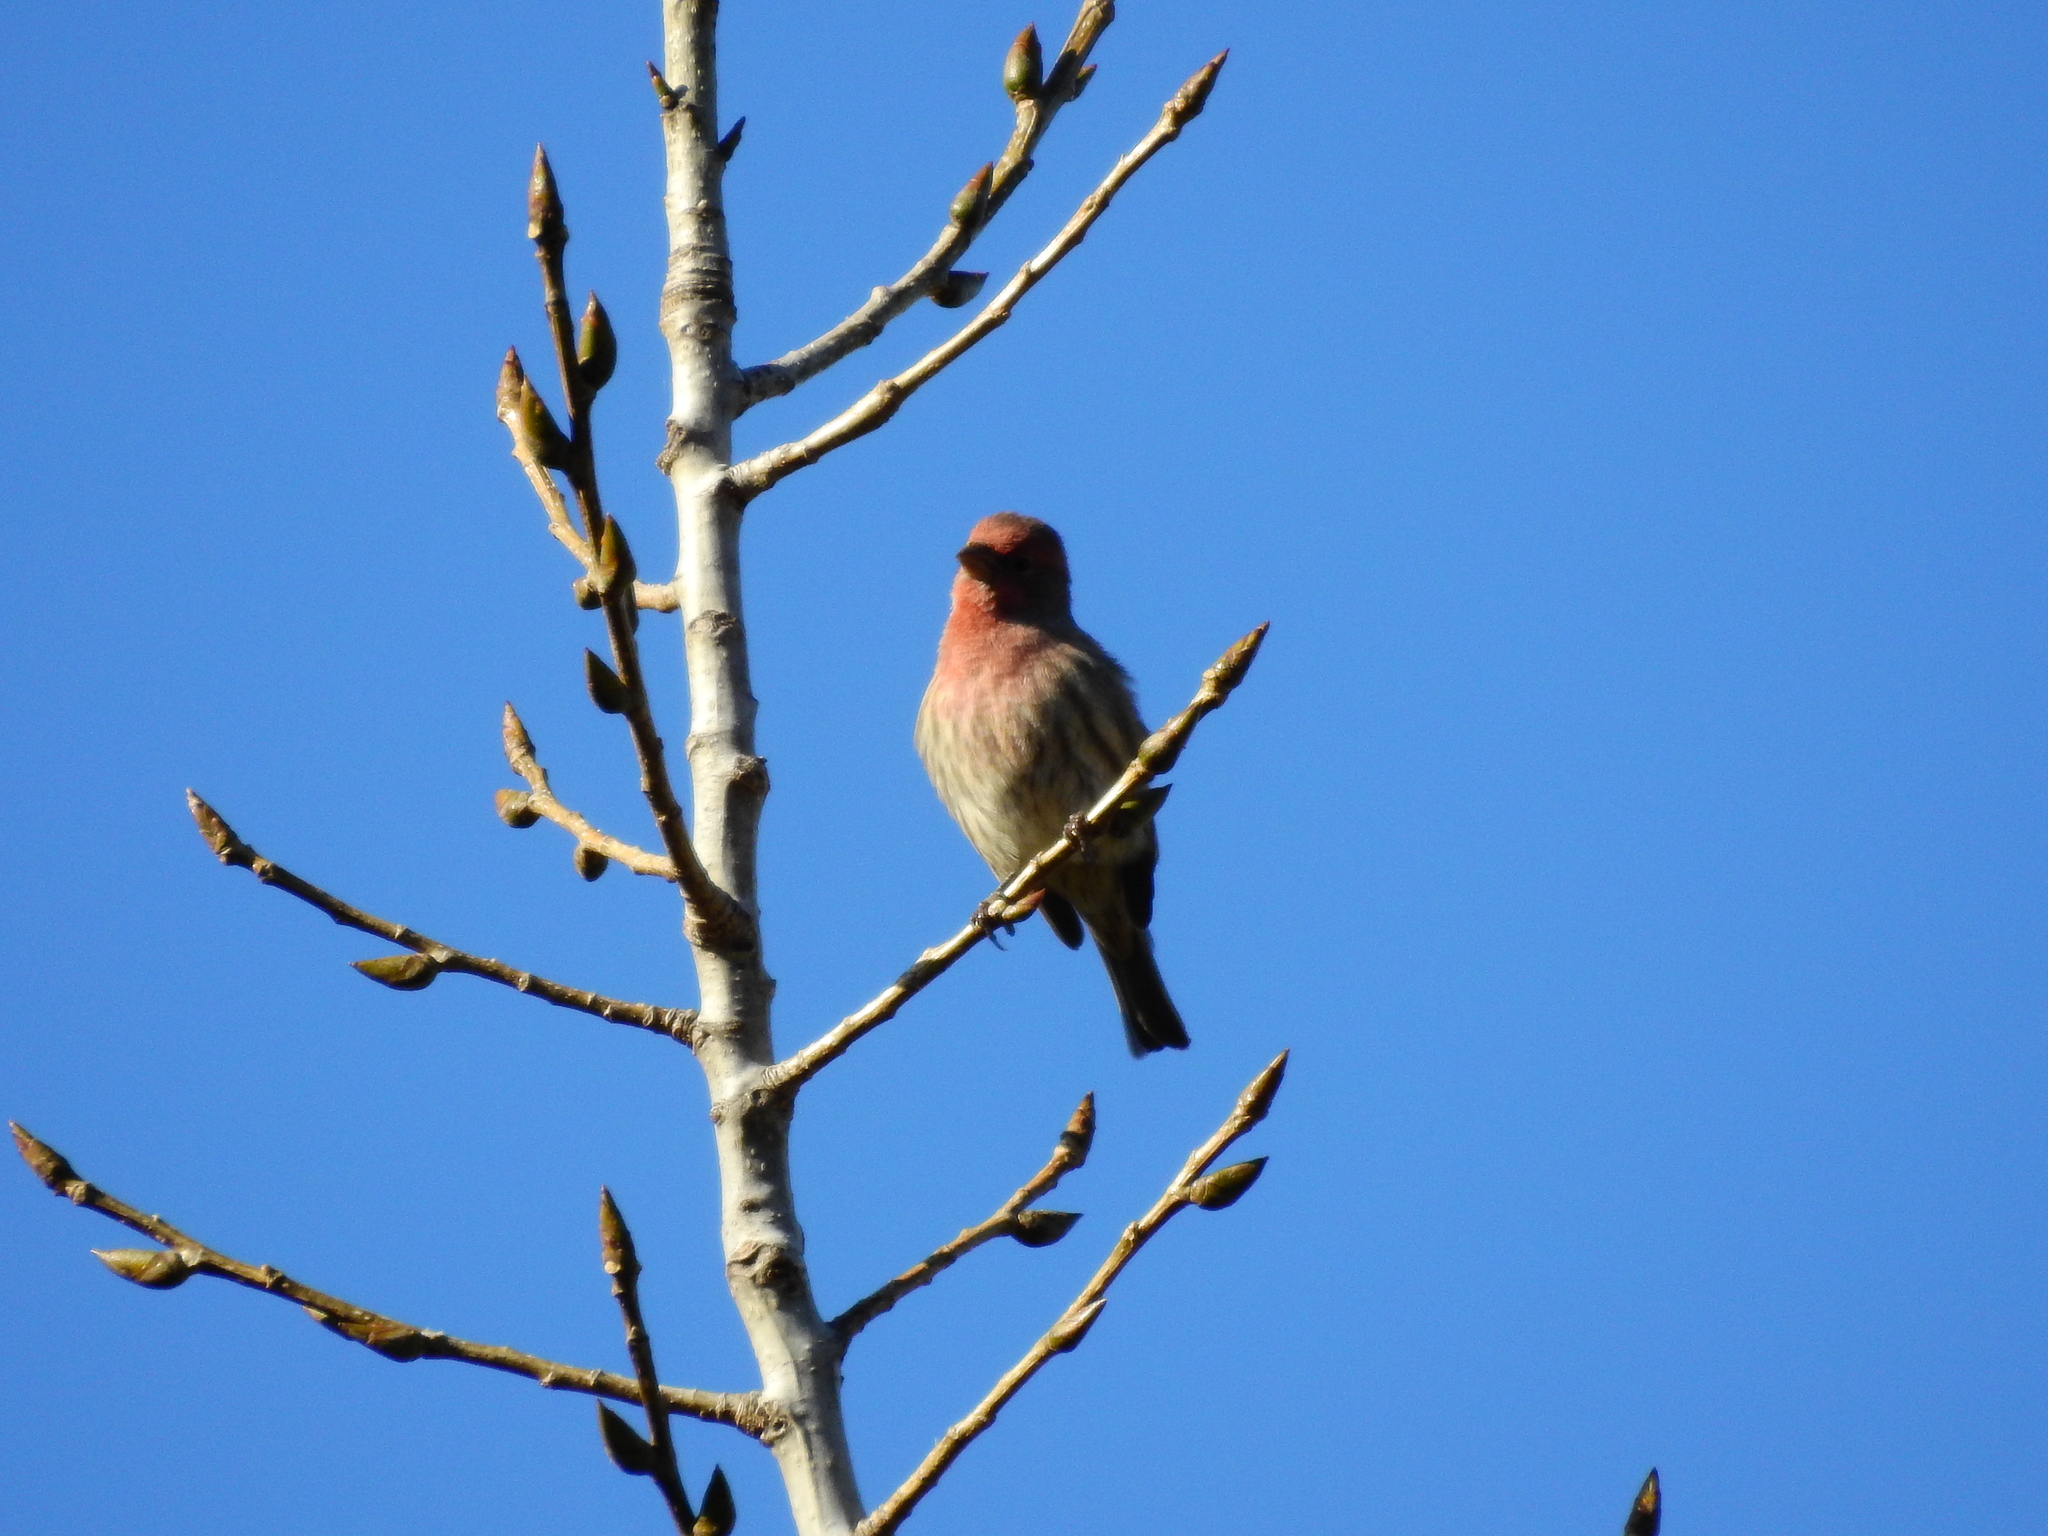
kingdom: Animalia
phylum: Chordata
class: Aves
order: Passeriformes
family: Fringillidae
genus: Haemorhous
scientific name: Haemorhous mexicanus
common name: House finch
